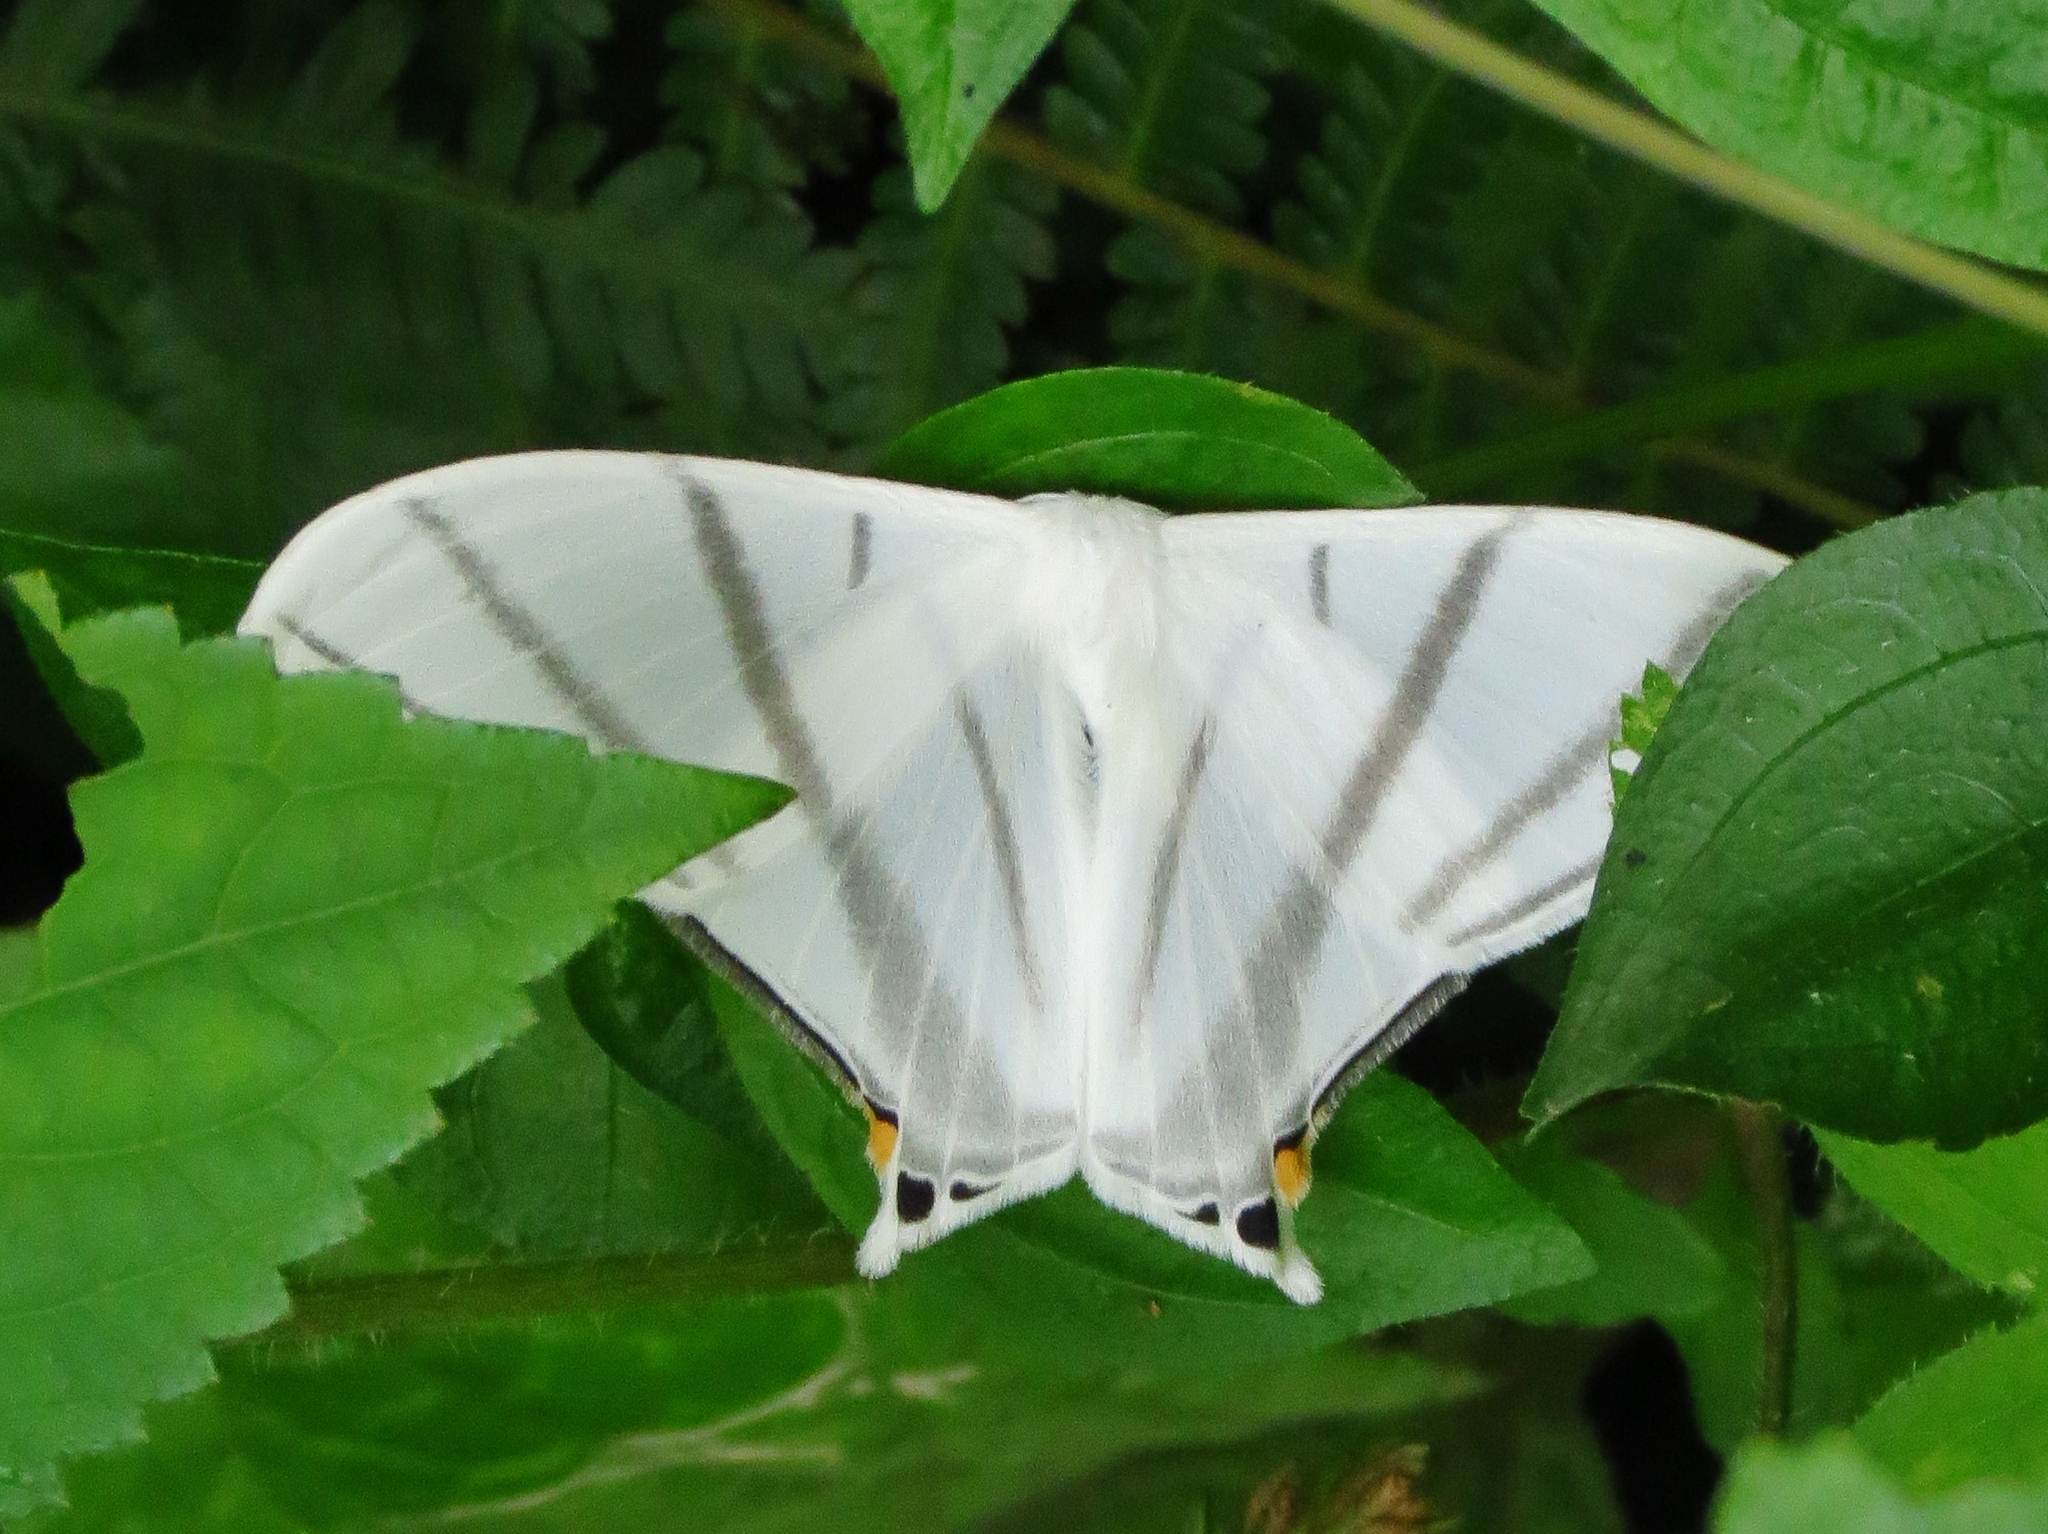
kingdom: Animalia
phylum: Arthropoda
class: Insecta
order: Lepidoptera
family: Saturniidae
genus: Therinia
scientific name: Therinia transversaria
